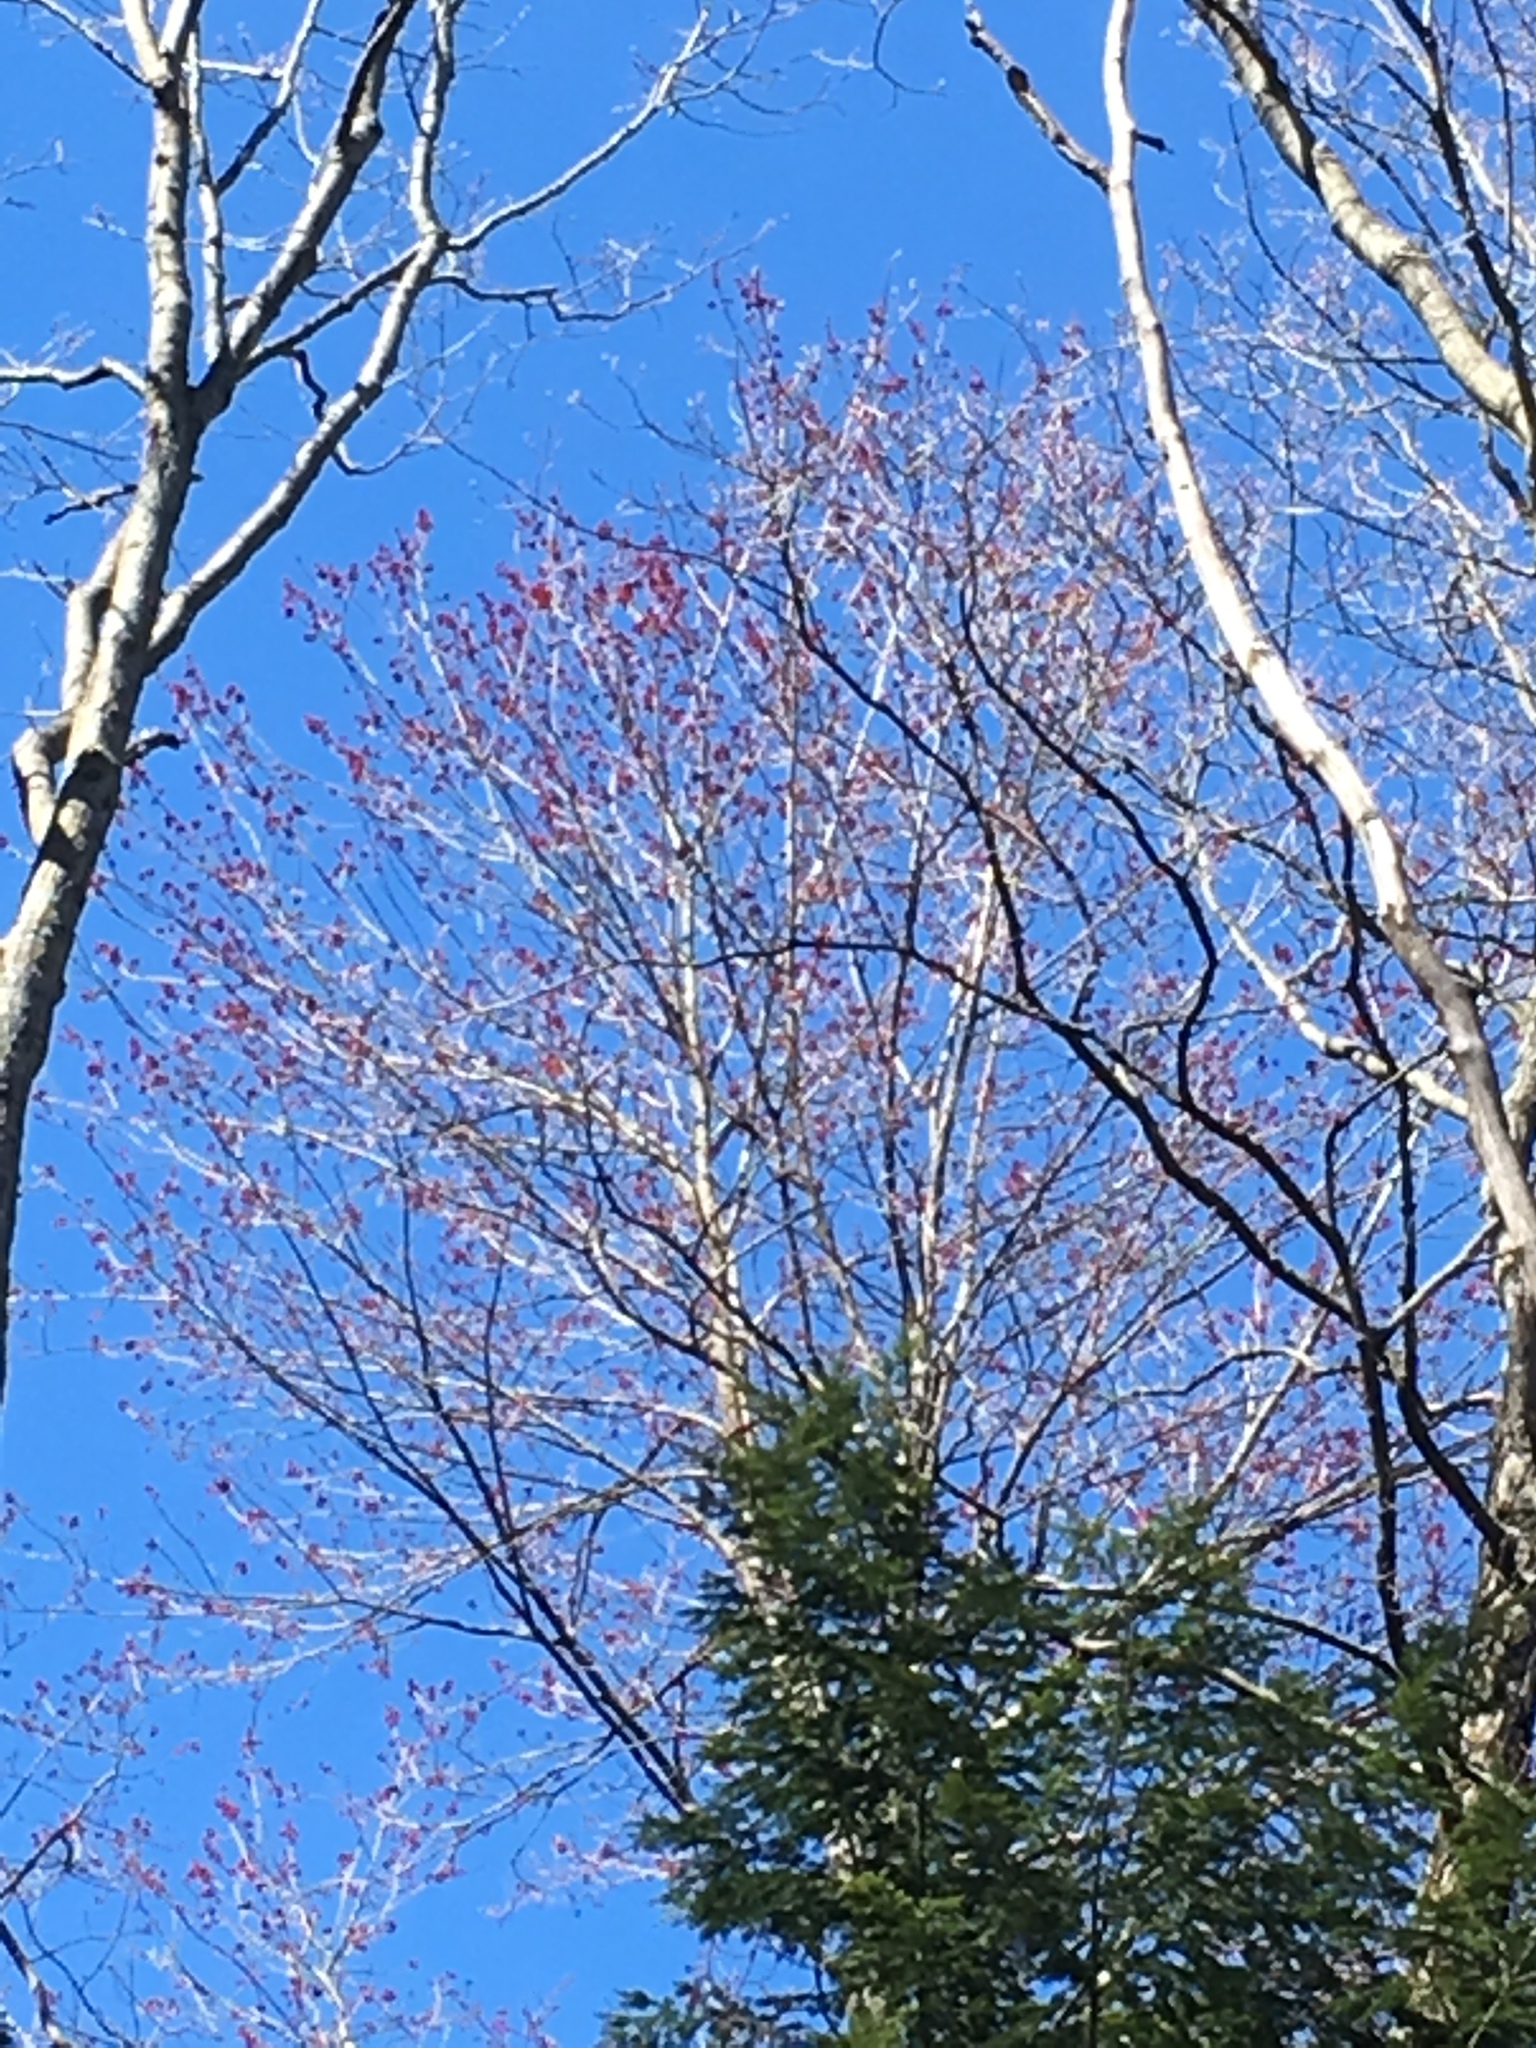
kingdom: Plantae
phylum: Tracheophyta
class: Magnoliopsida
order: Sapindales
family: Sapindaceae
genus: Acer
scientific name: Acer rubrum
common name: Red maple
